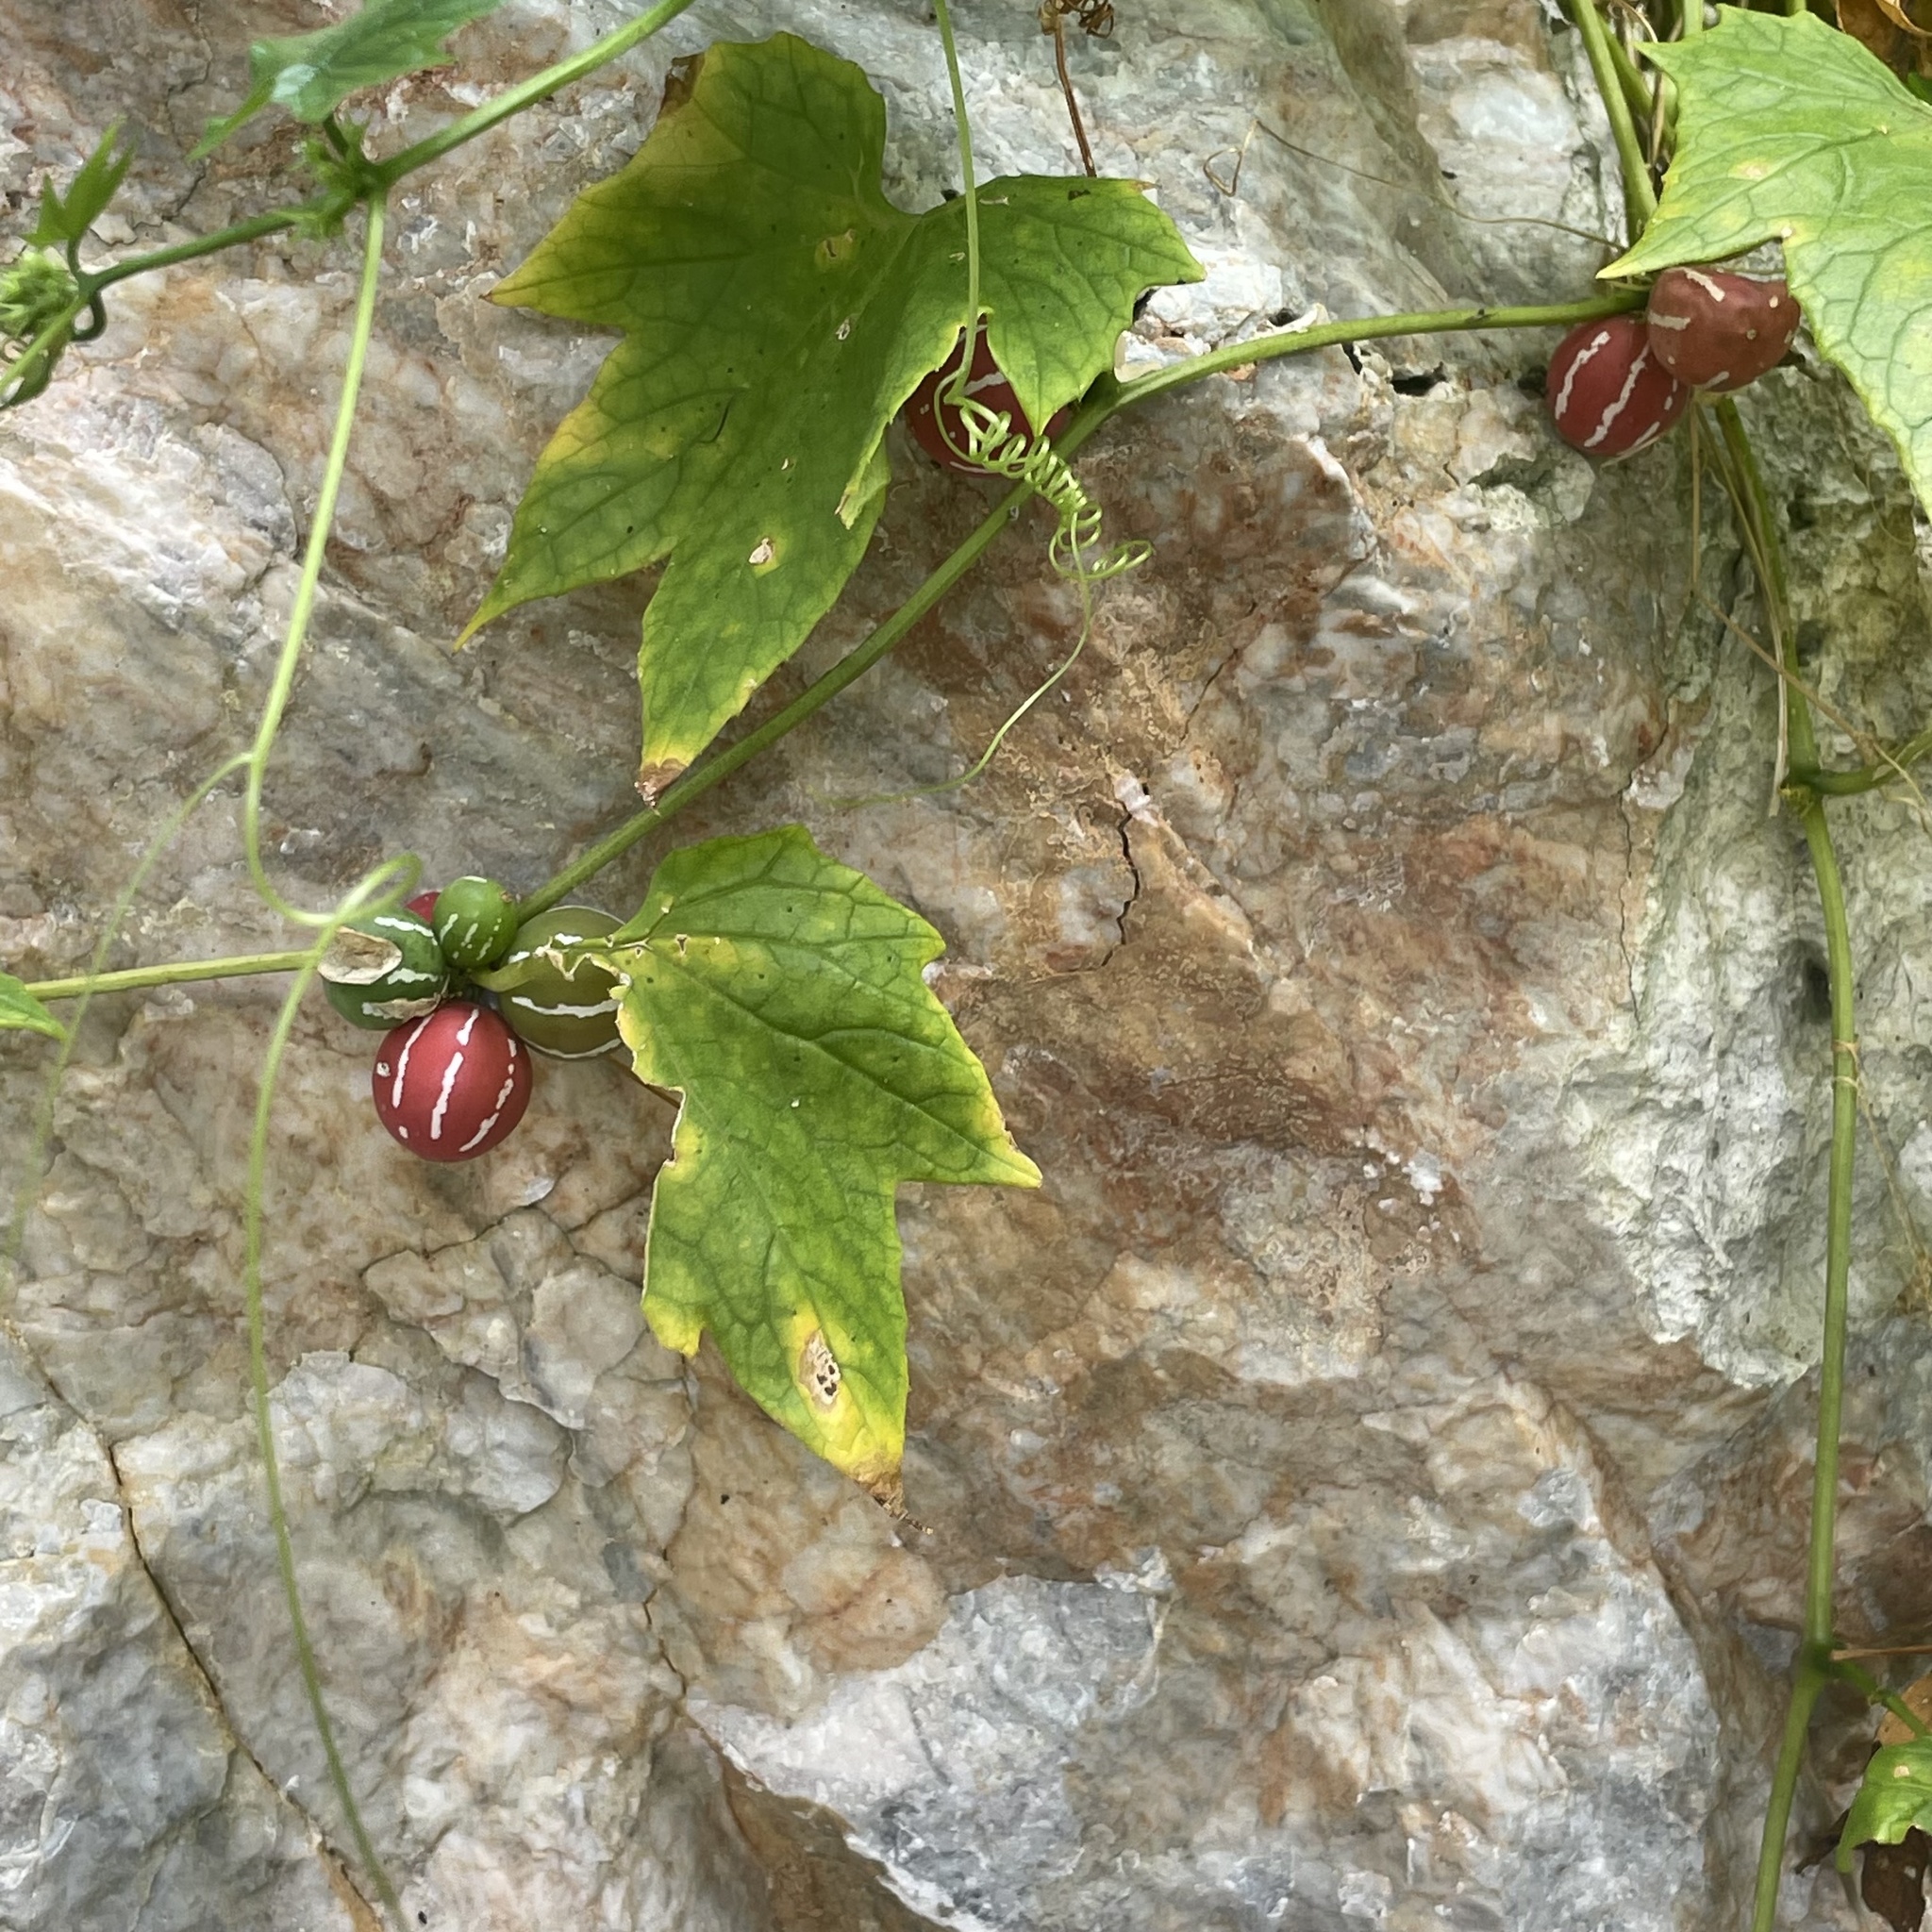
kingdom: Plantae
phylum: Tracheophyta
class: Magnoliopsida
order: Cucurbitales
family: Cucurbitaceae
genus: Diplocyclos
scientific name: Diplocyclos palmatus
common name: Striped-cucumber
